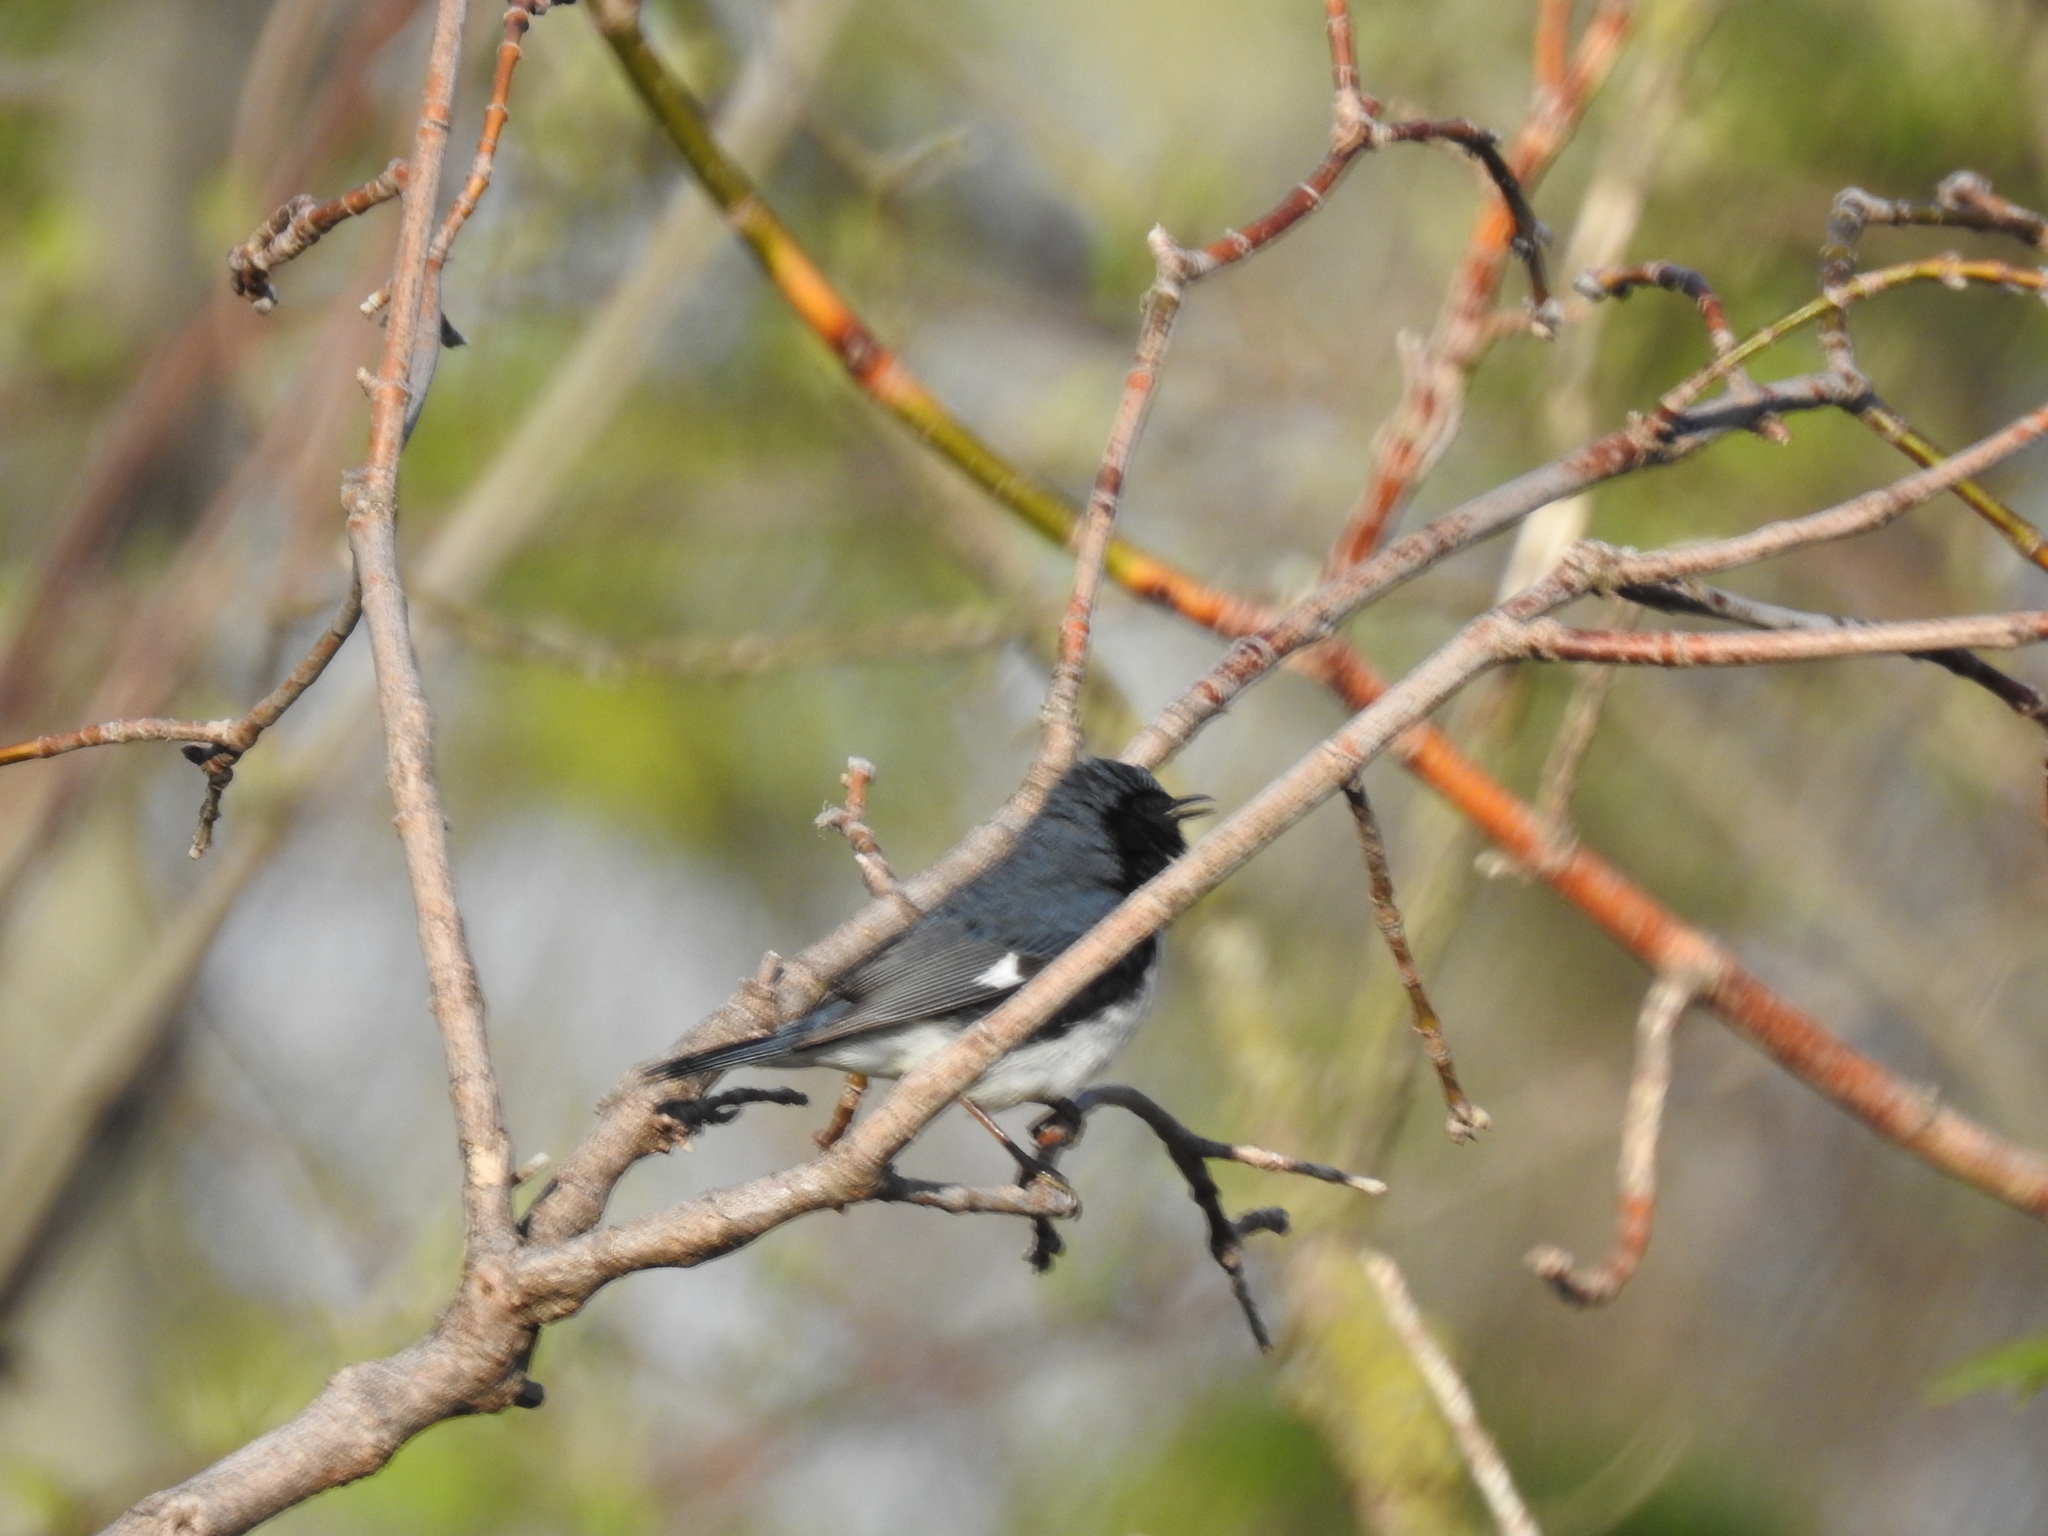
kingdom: Animalia
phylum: Chordata
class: Aves
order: Passeriformes
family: Parulidae
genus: Setophaga
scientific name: Setophaga caerulescens
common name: Black-throated blue warbler
